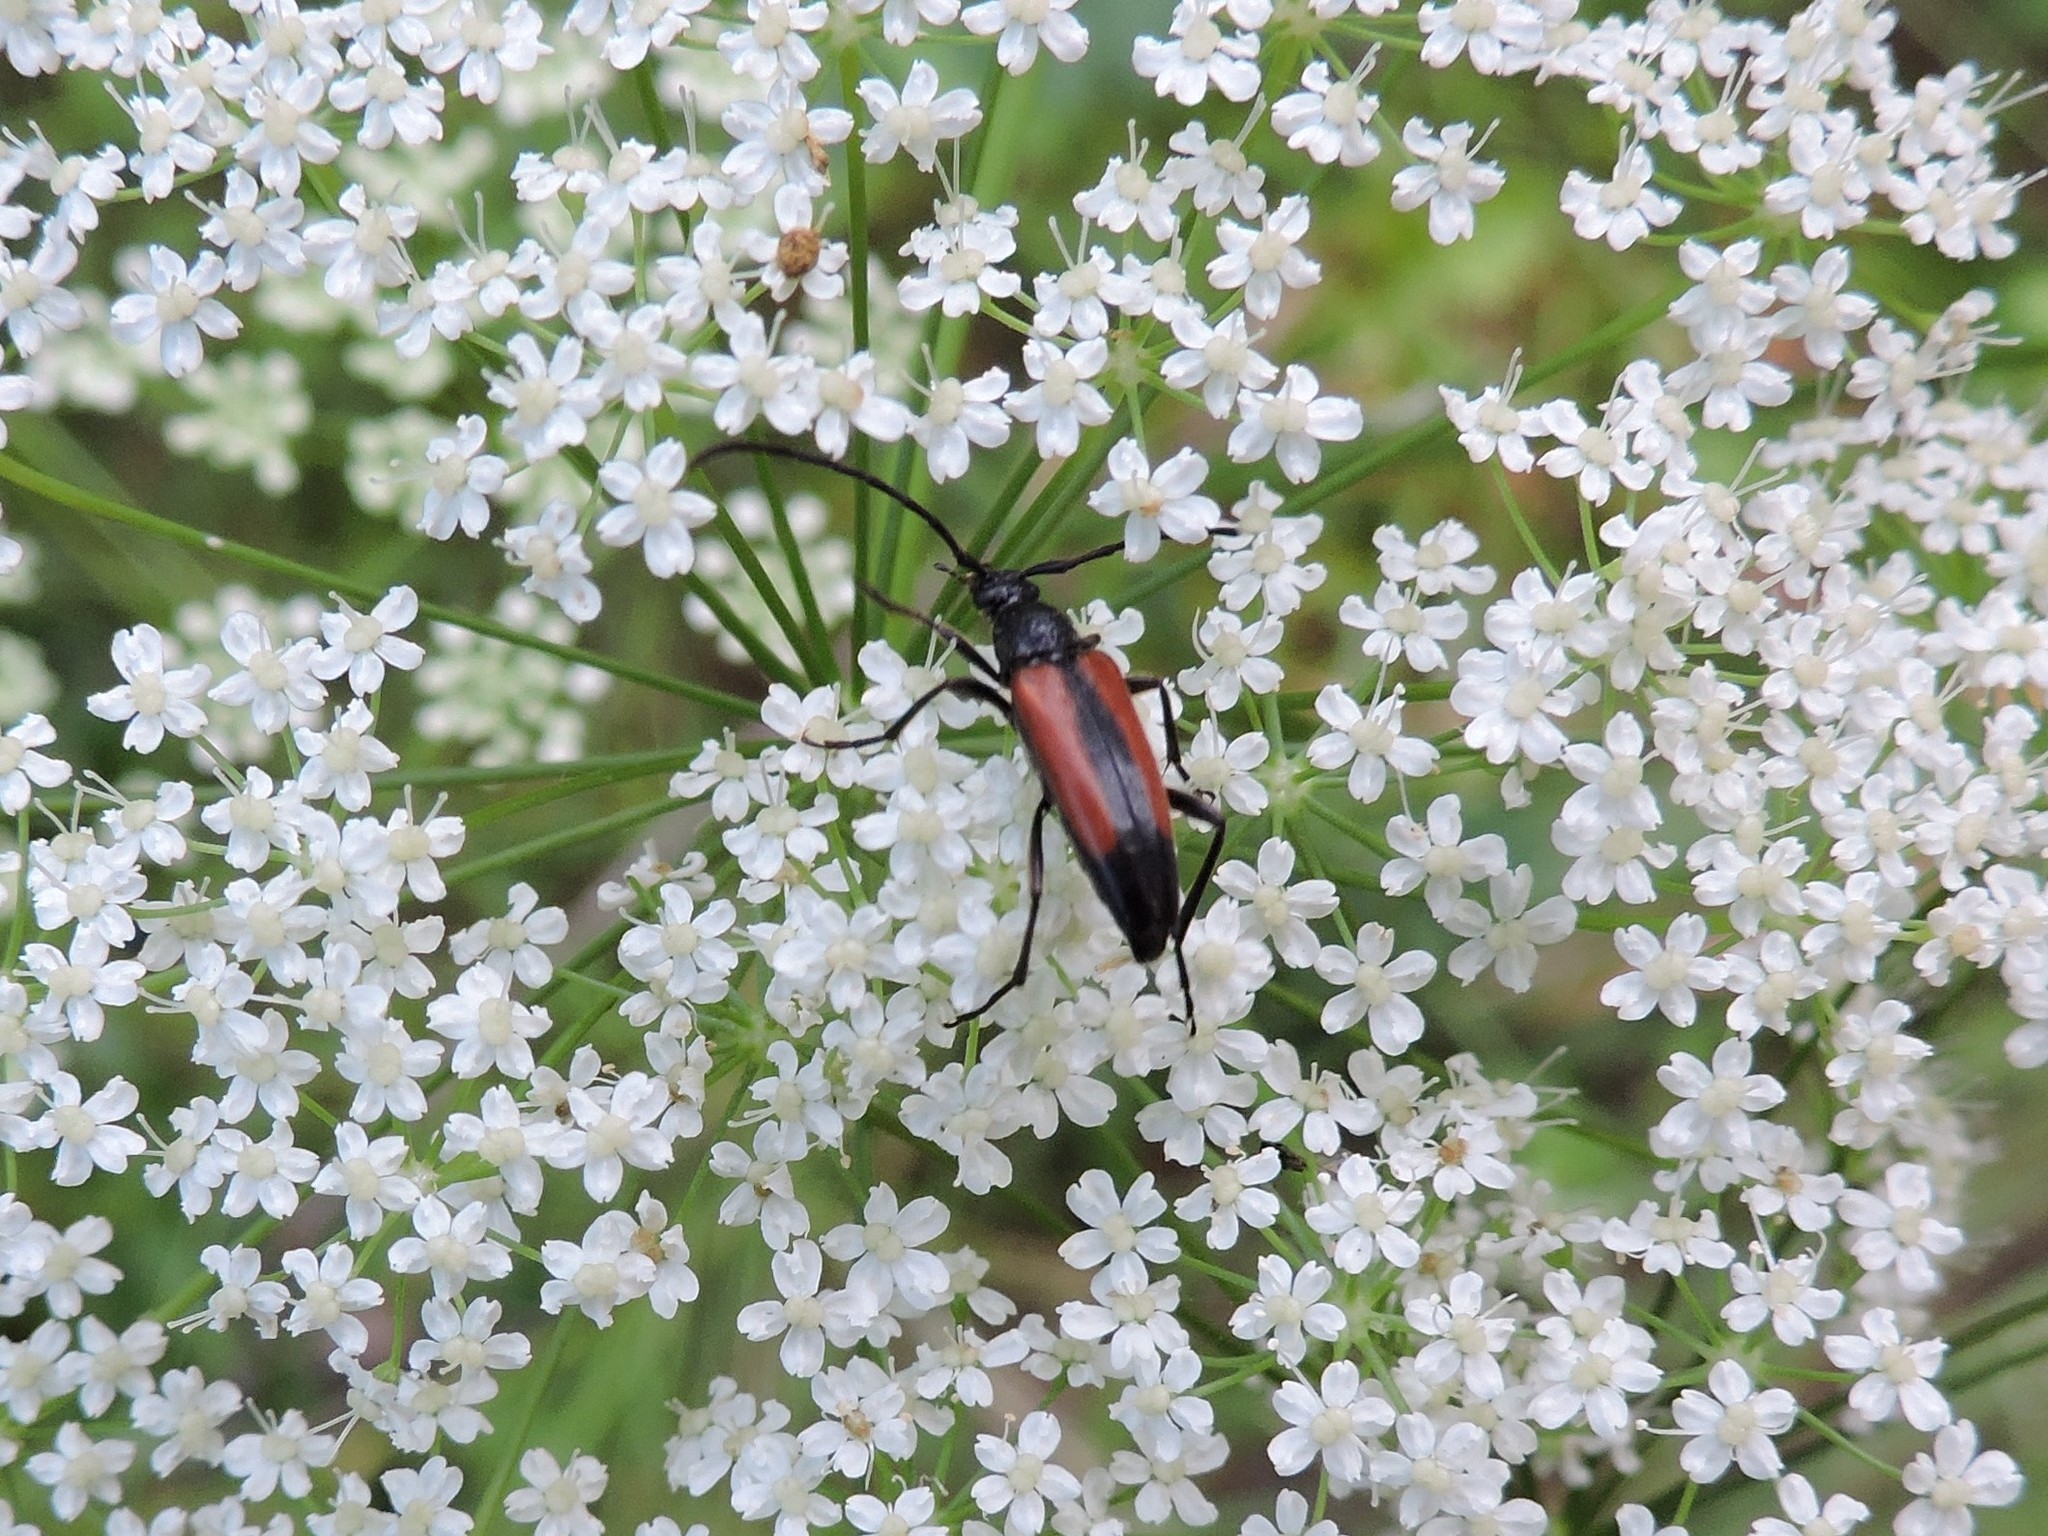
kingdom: Animalia
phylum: Arthropoda
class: Insecta
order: Coleoptera
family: Cerambycidae
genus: Stenurella
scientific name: Stenurella melanura
